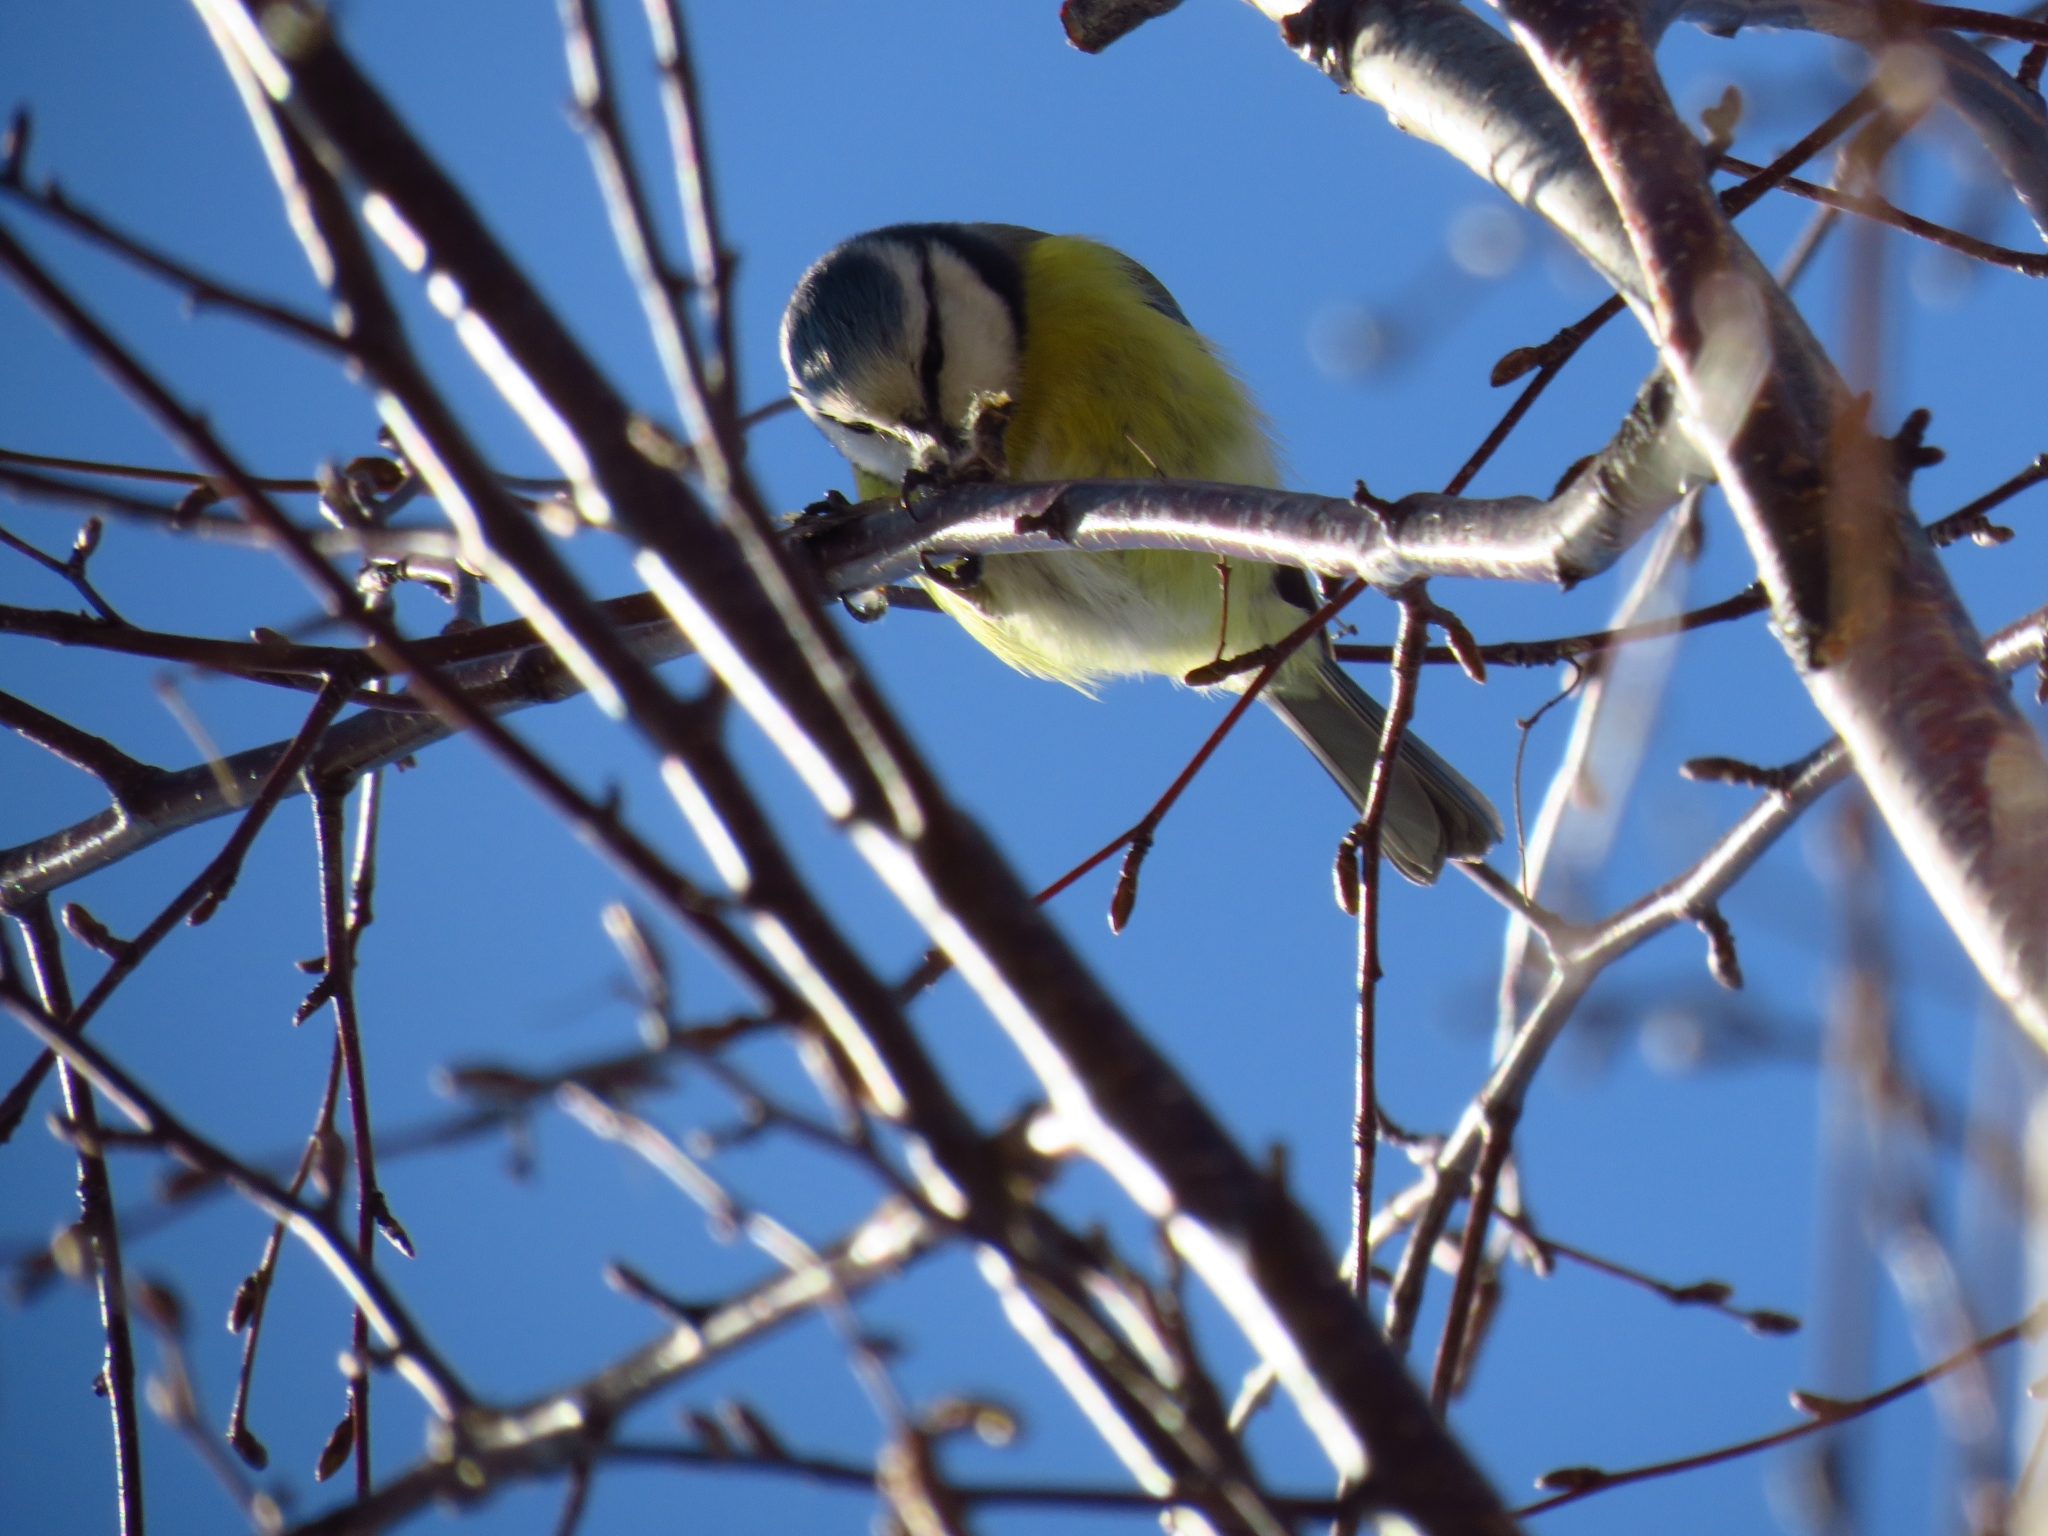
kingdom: Animalia
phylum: Chordata
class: Aves
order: Passeriformes
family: Paridae
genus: Cyanistes
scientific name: Cyanistes caeruleus
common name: Eurasian blue tit
